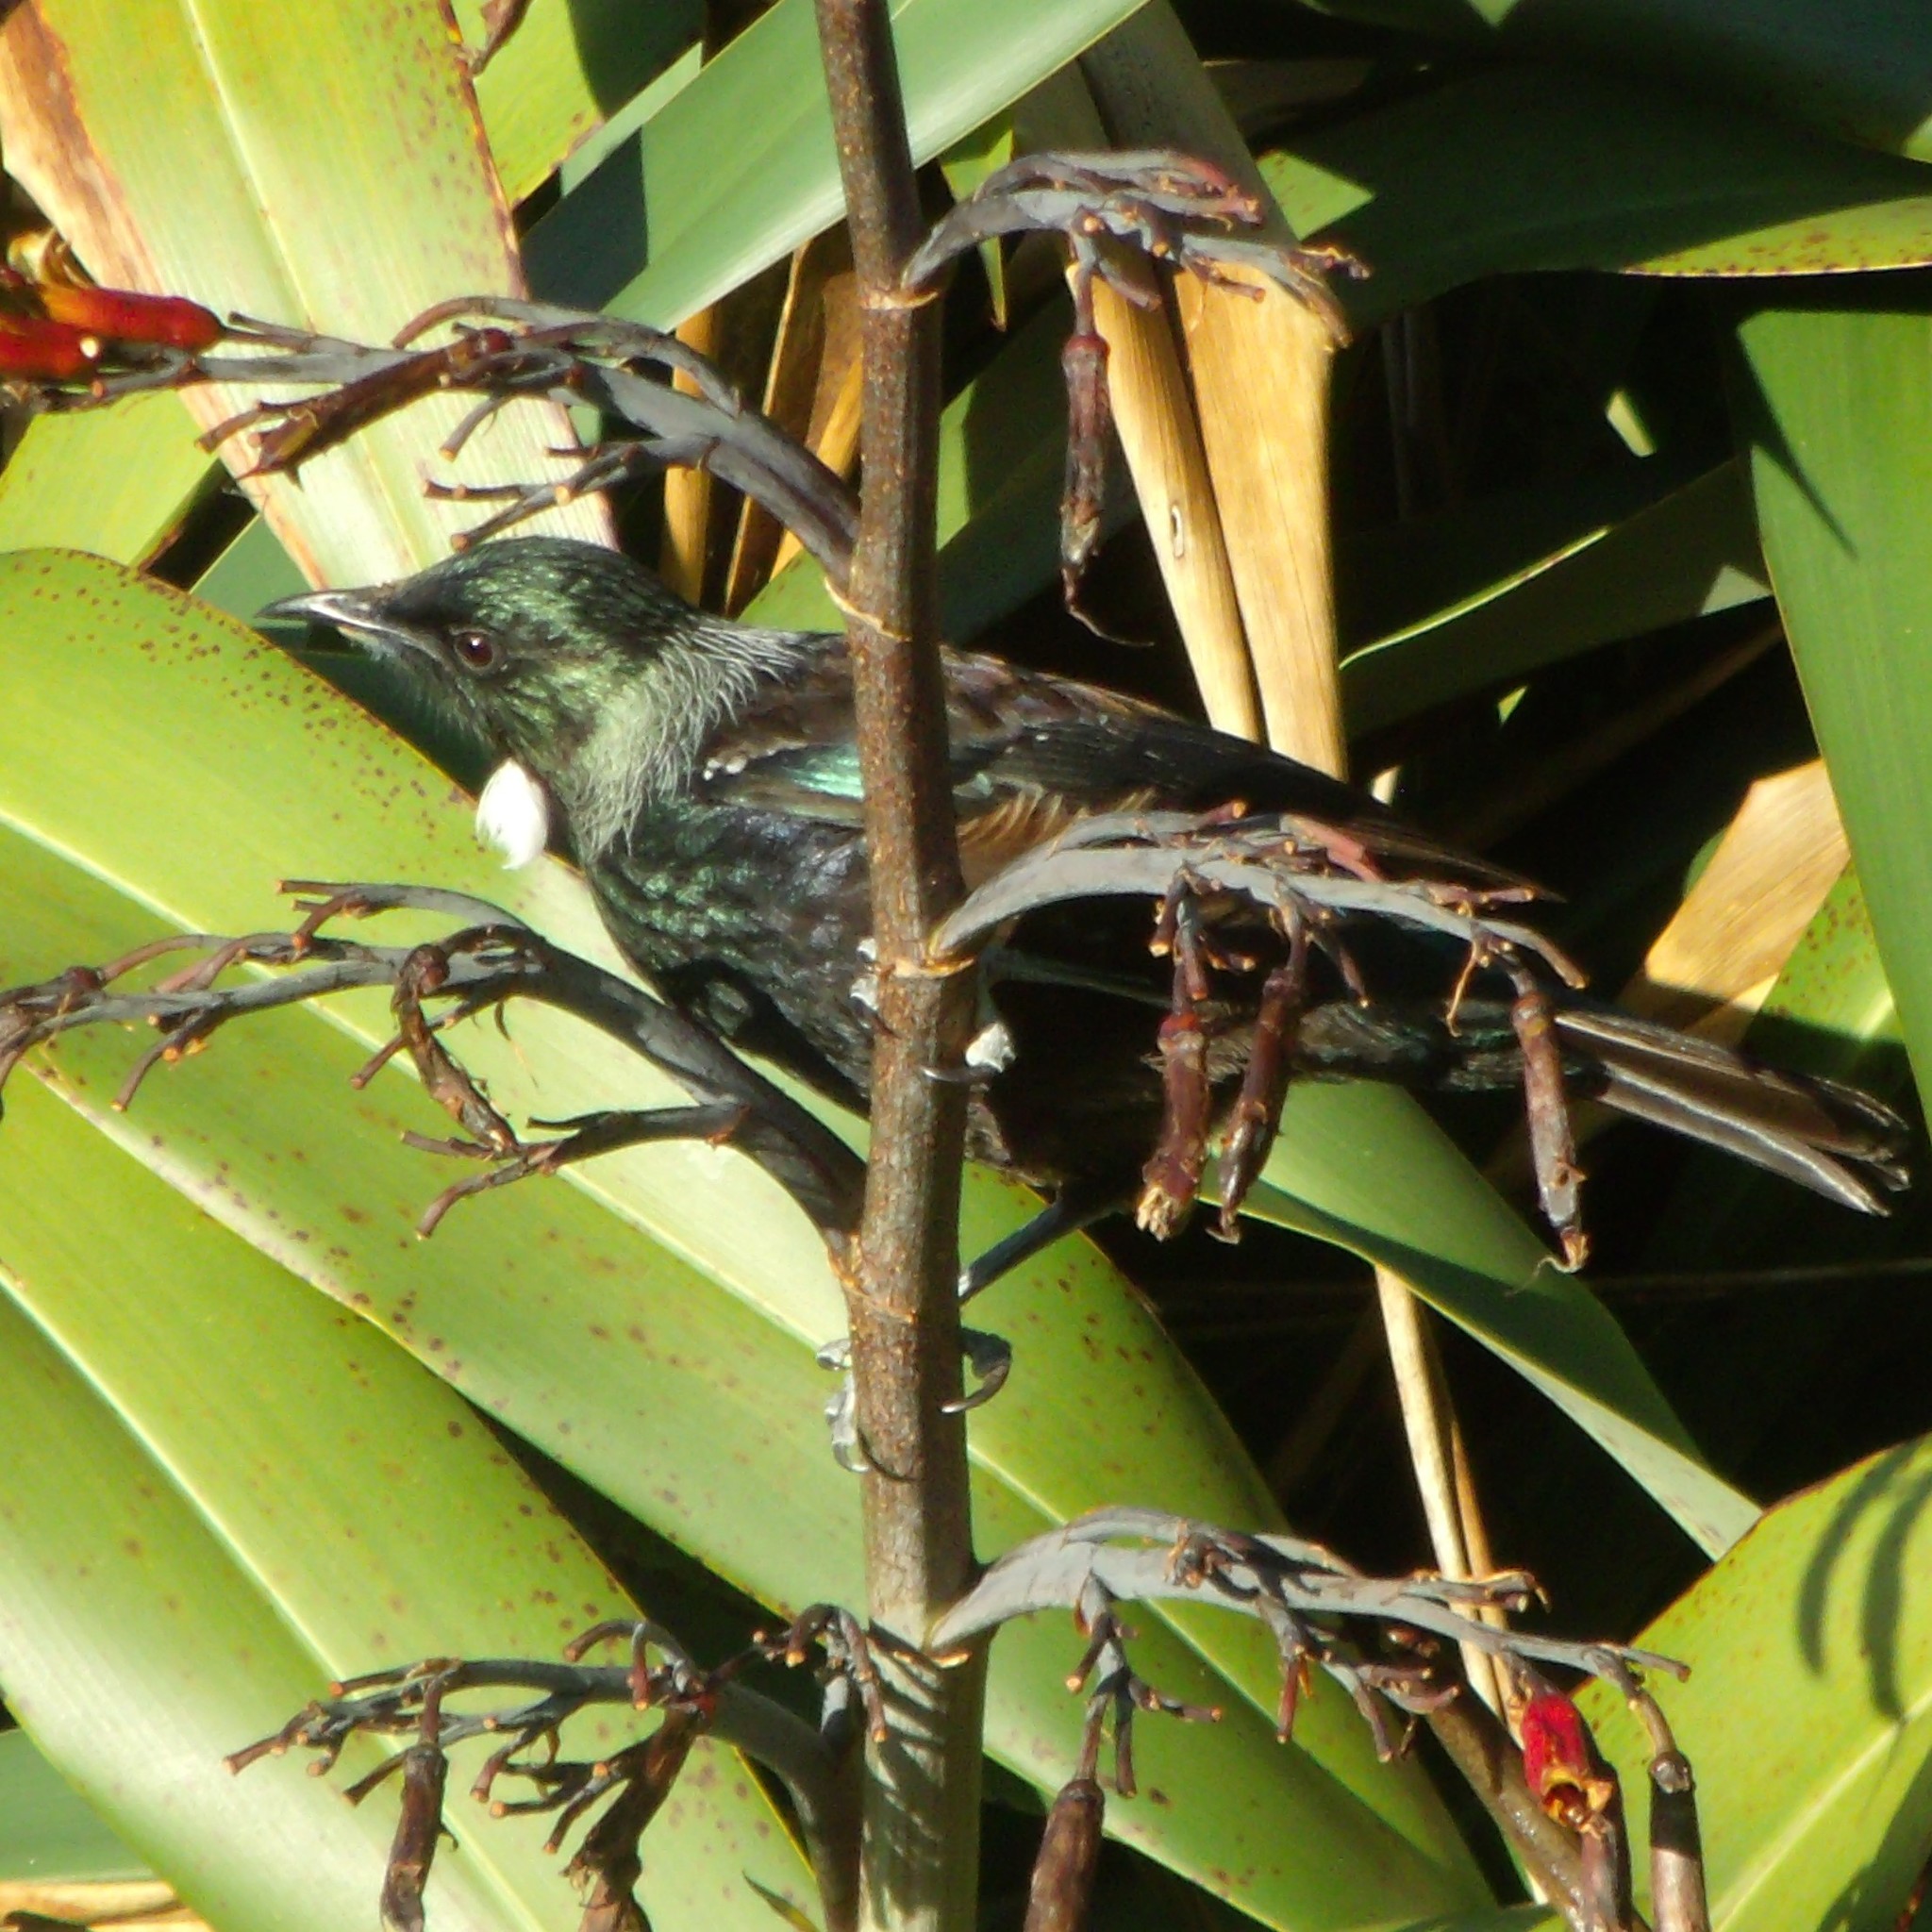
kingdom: Animalia
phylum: Chordata
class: Aves
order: Passeriformes
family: Meliphagidae
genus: Prosthemadera
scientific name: Prosthemadera novaeseelandiae
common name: Tui
